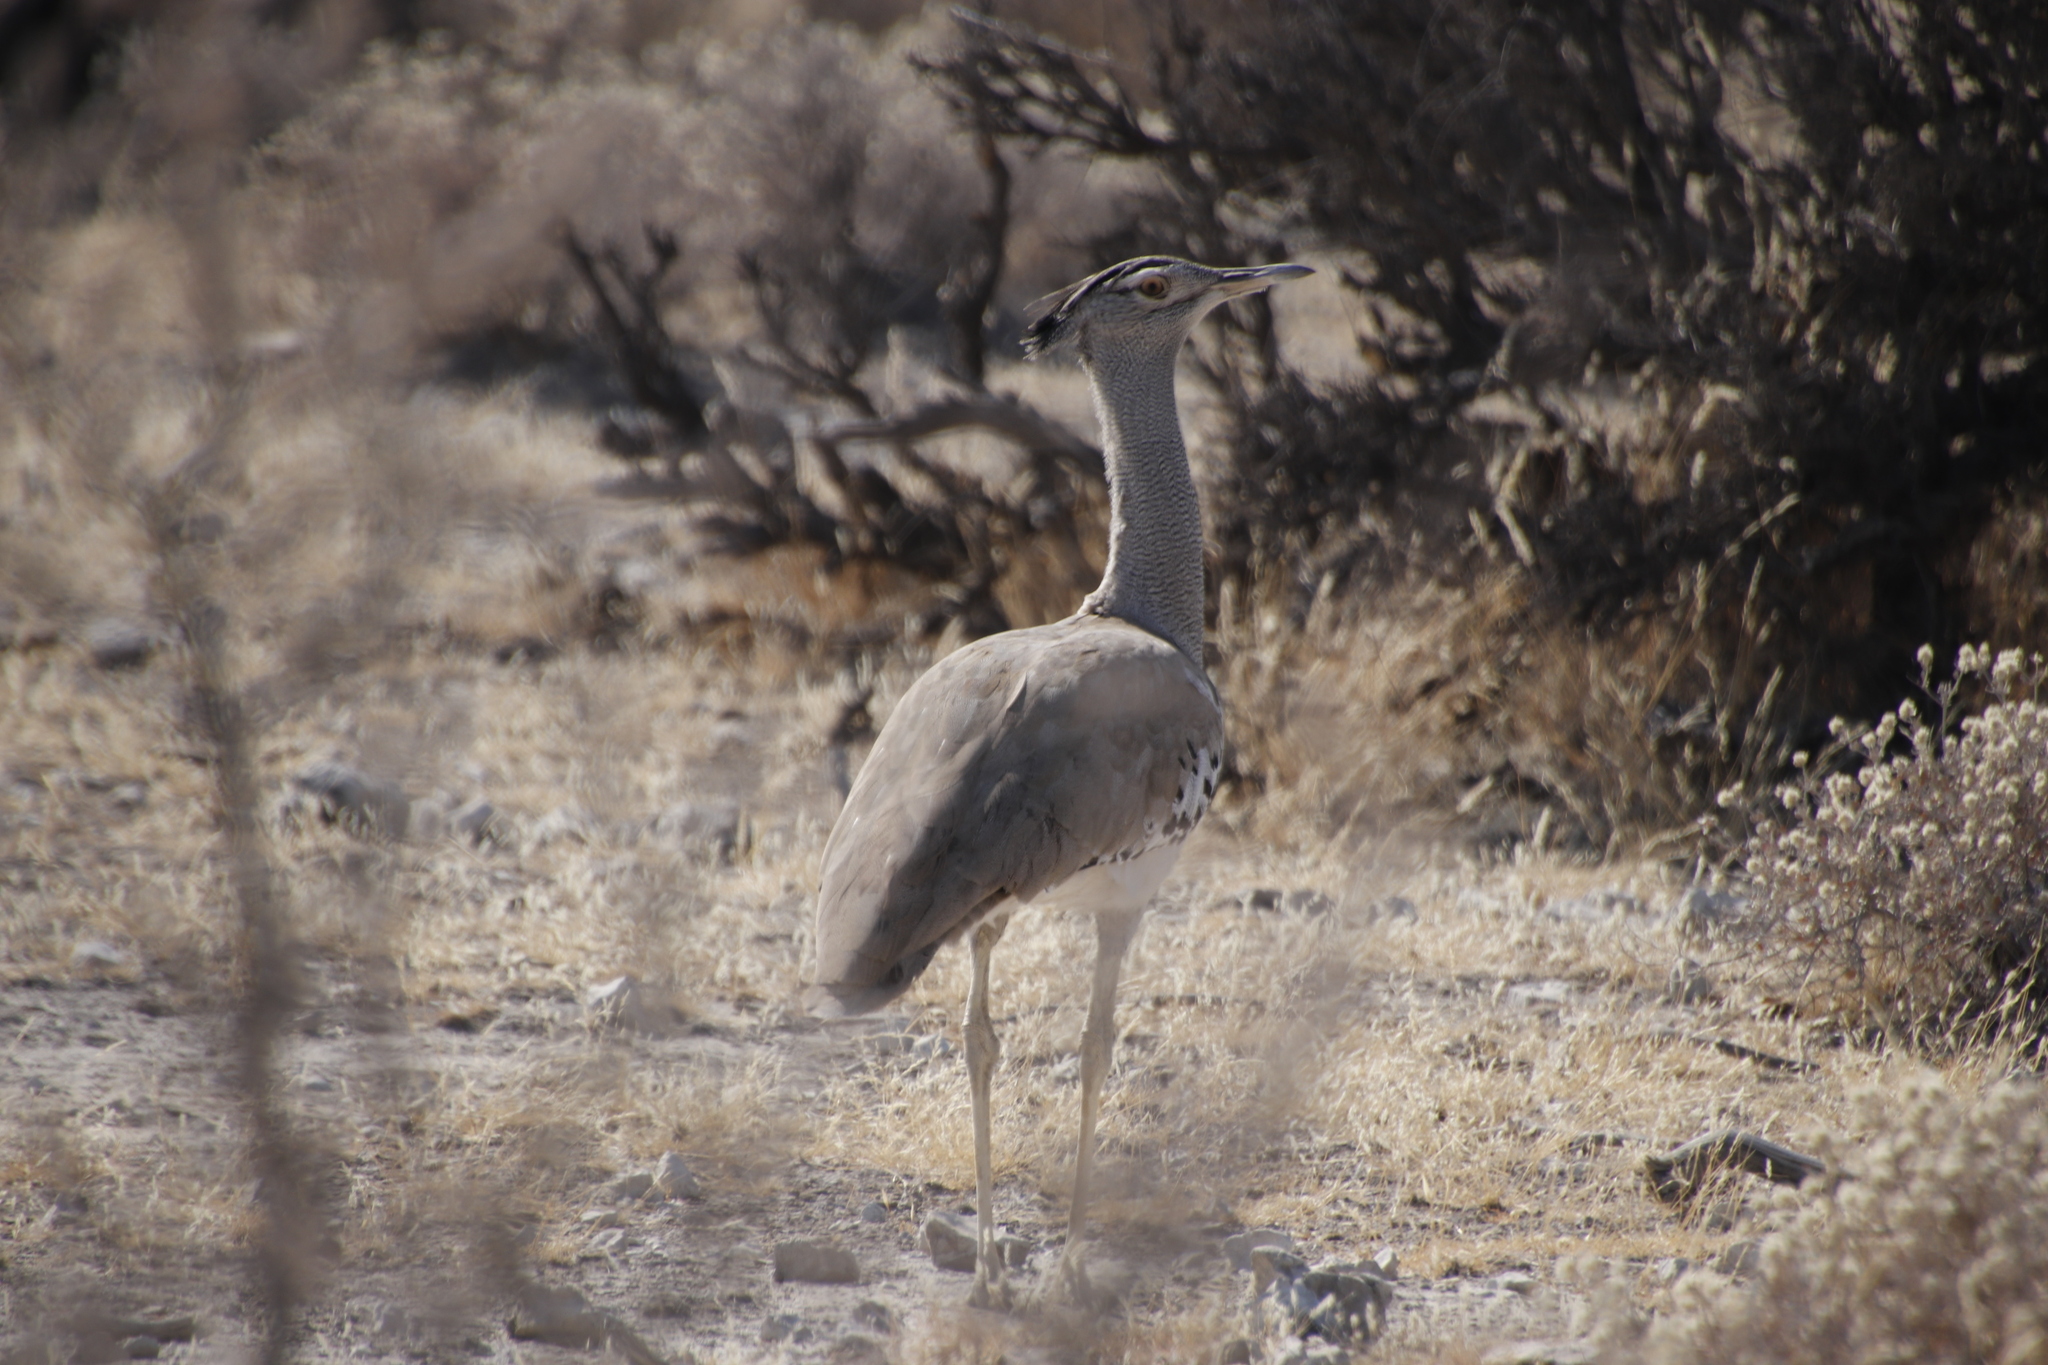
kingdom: Animalia
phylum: Chordata
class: Aves
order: Otidiformes
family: Otididae
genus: Ardeotis
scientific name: Ardeotis kori
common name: Kori bustard
